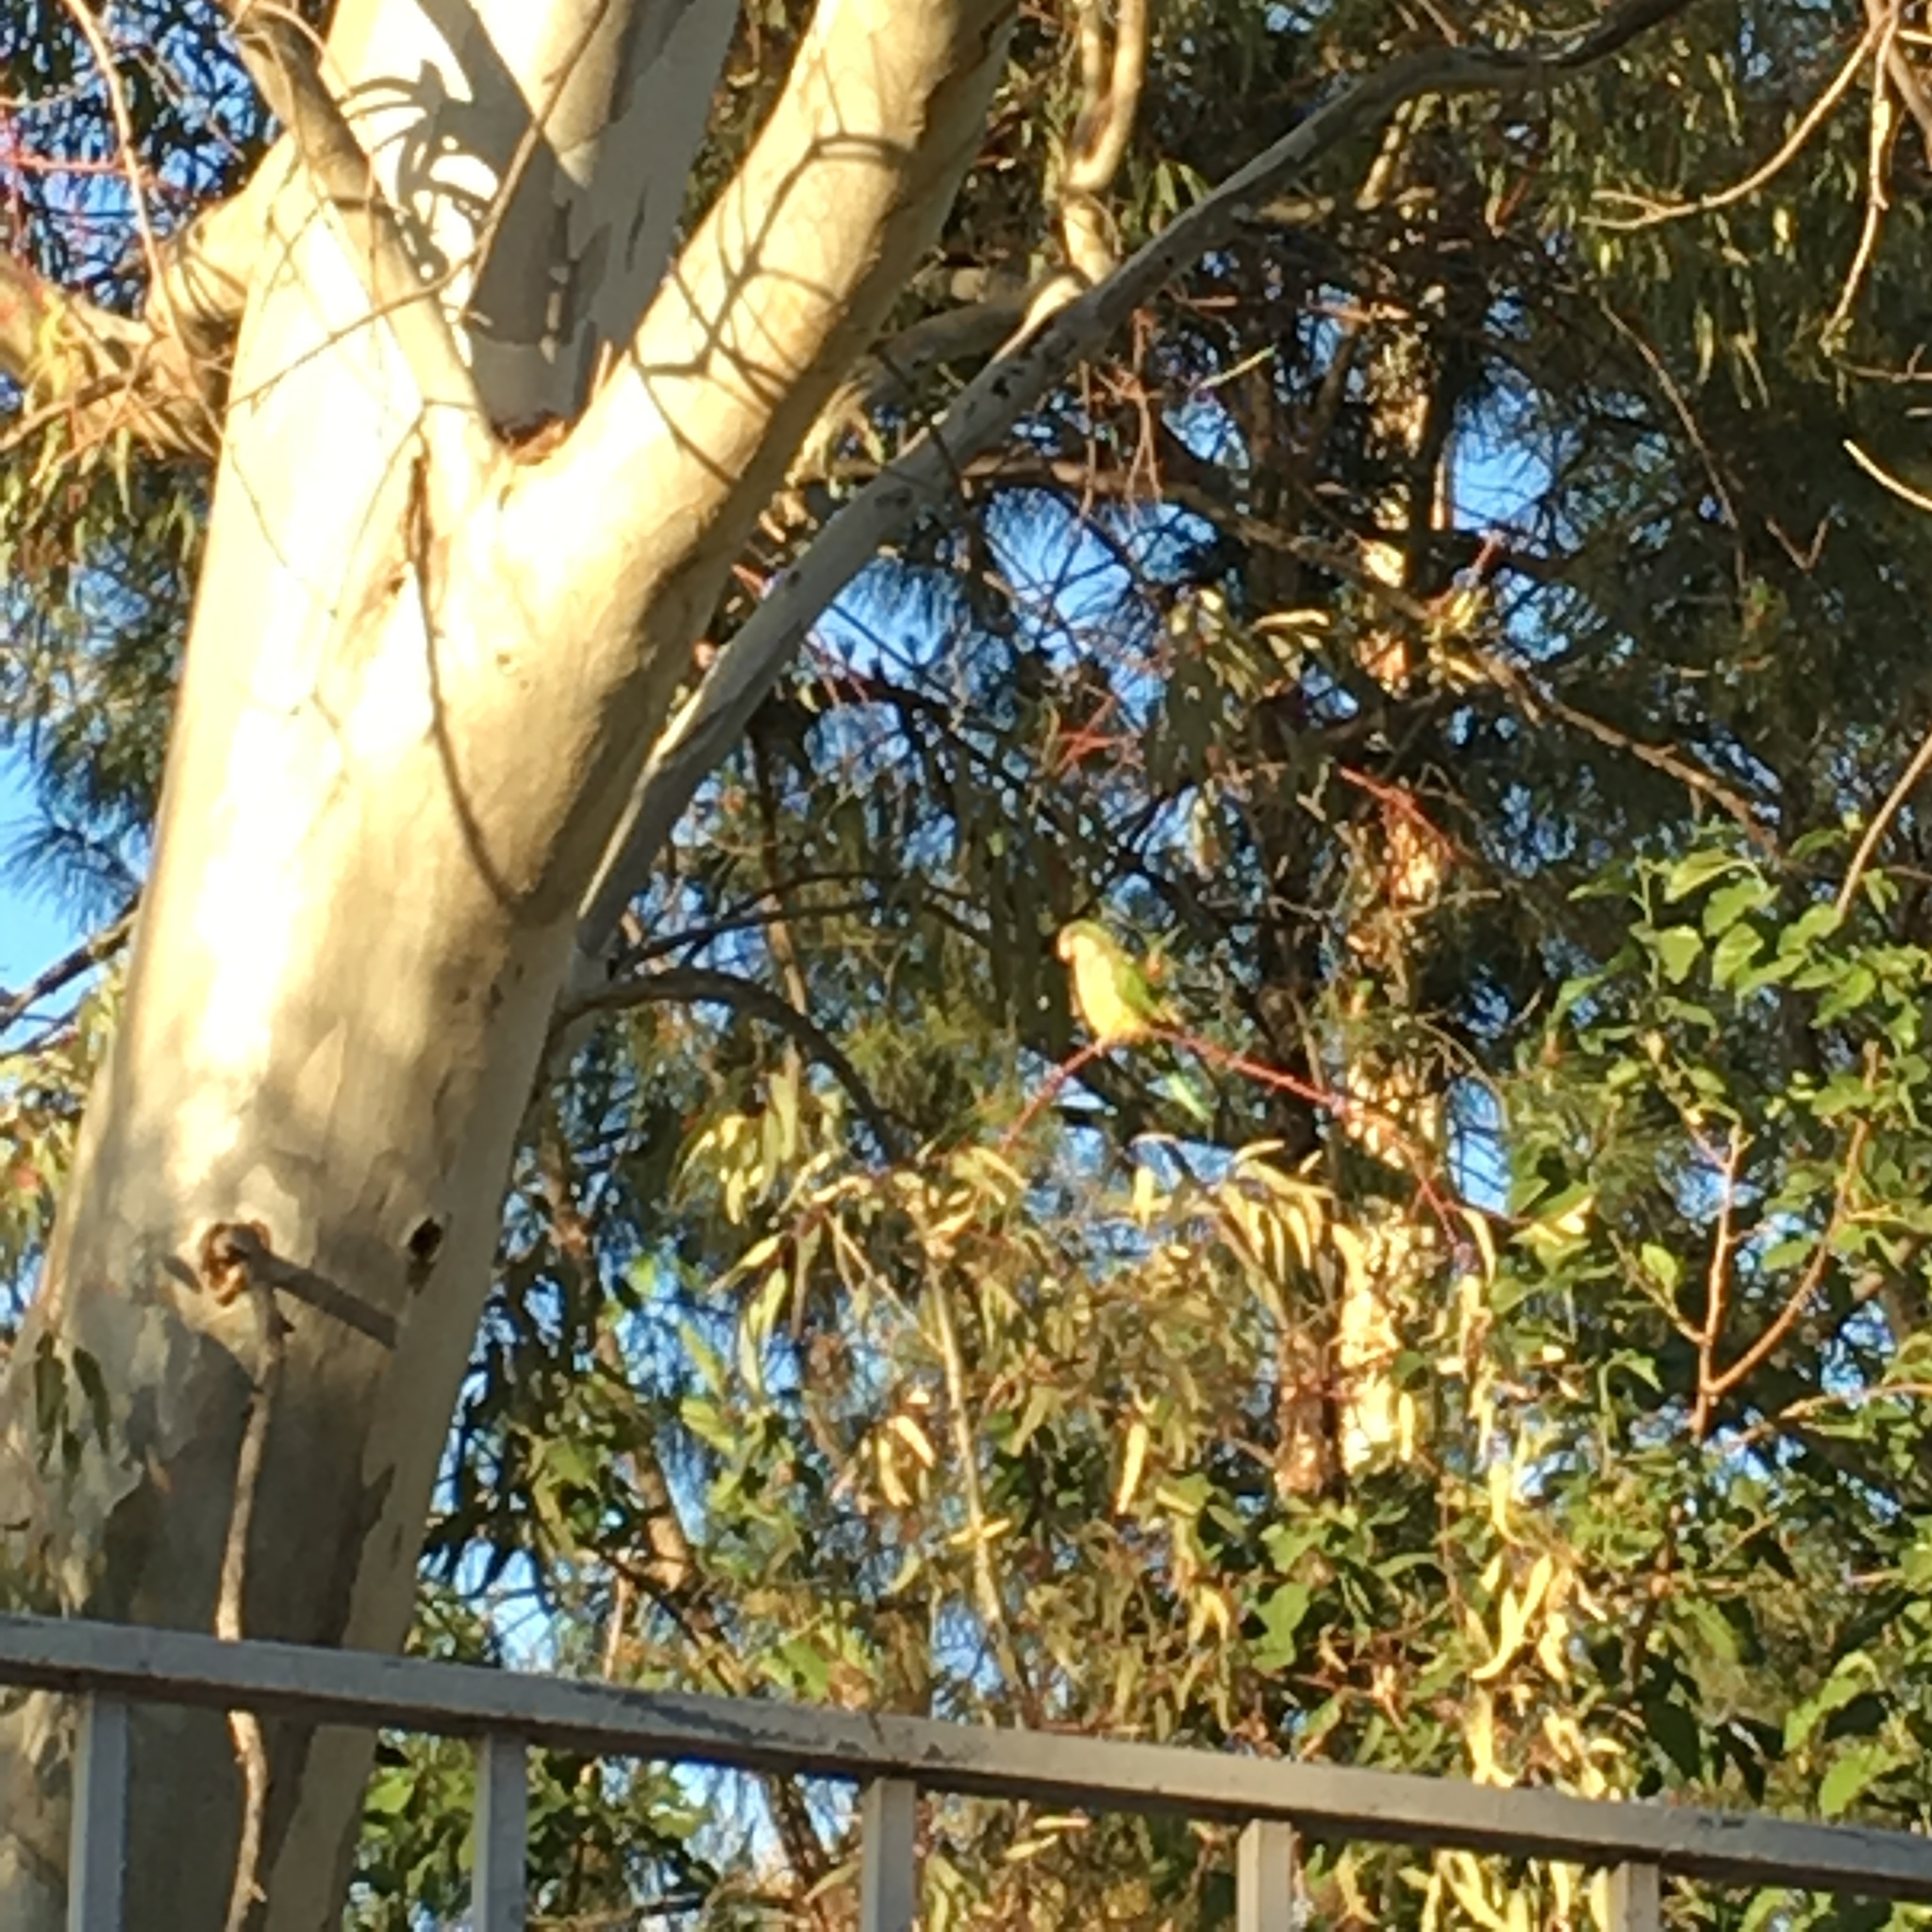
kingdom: Animalia
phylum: Chordata
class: Aves
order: Psittaciformes
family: Psittacidae
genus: Myiopsitta
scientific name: Myiopsitta monachus
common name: Monk parakeet
